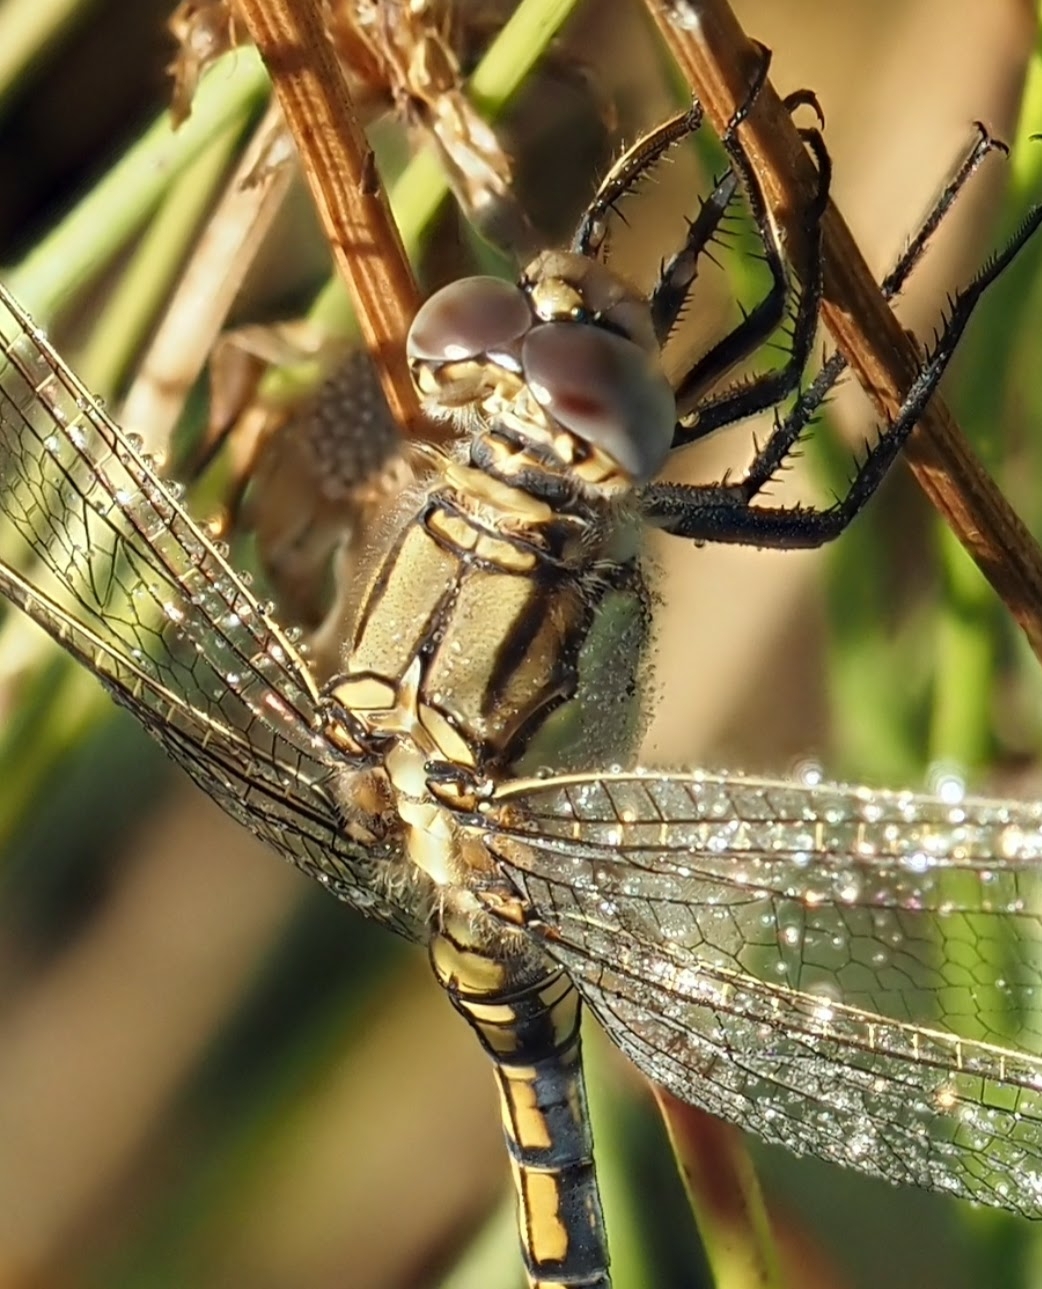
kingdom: Animalia
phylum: Arthropoda
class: Insecta
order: Odonata
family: Libellulidae
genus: Orthetrum
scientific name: Orthetrum caledonicum
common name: Blue skimmer
